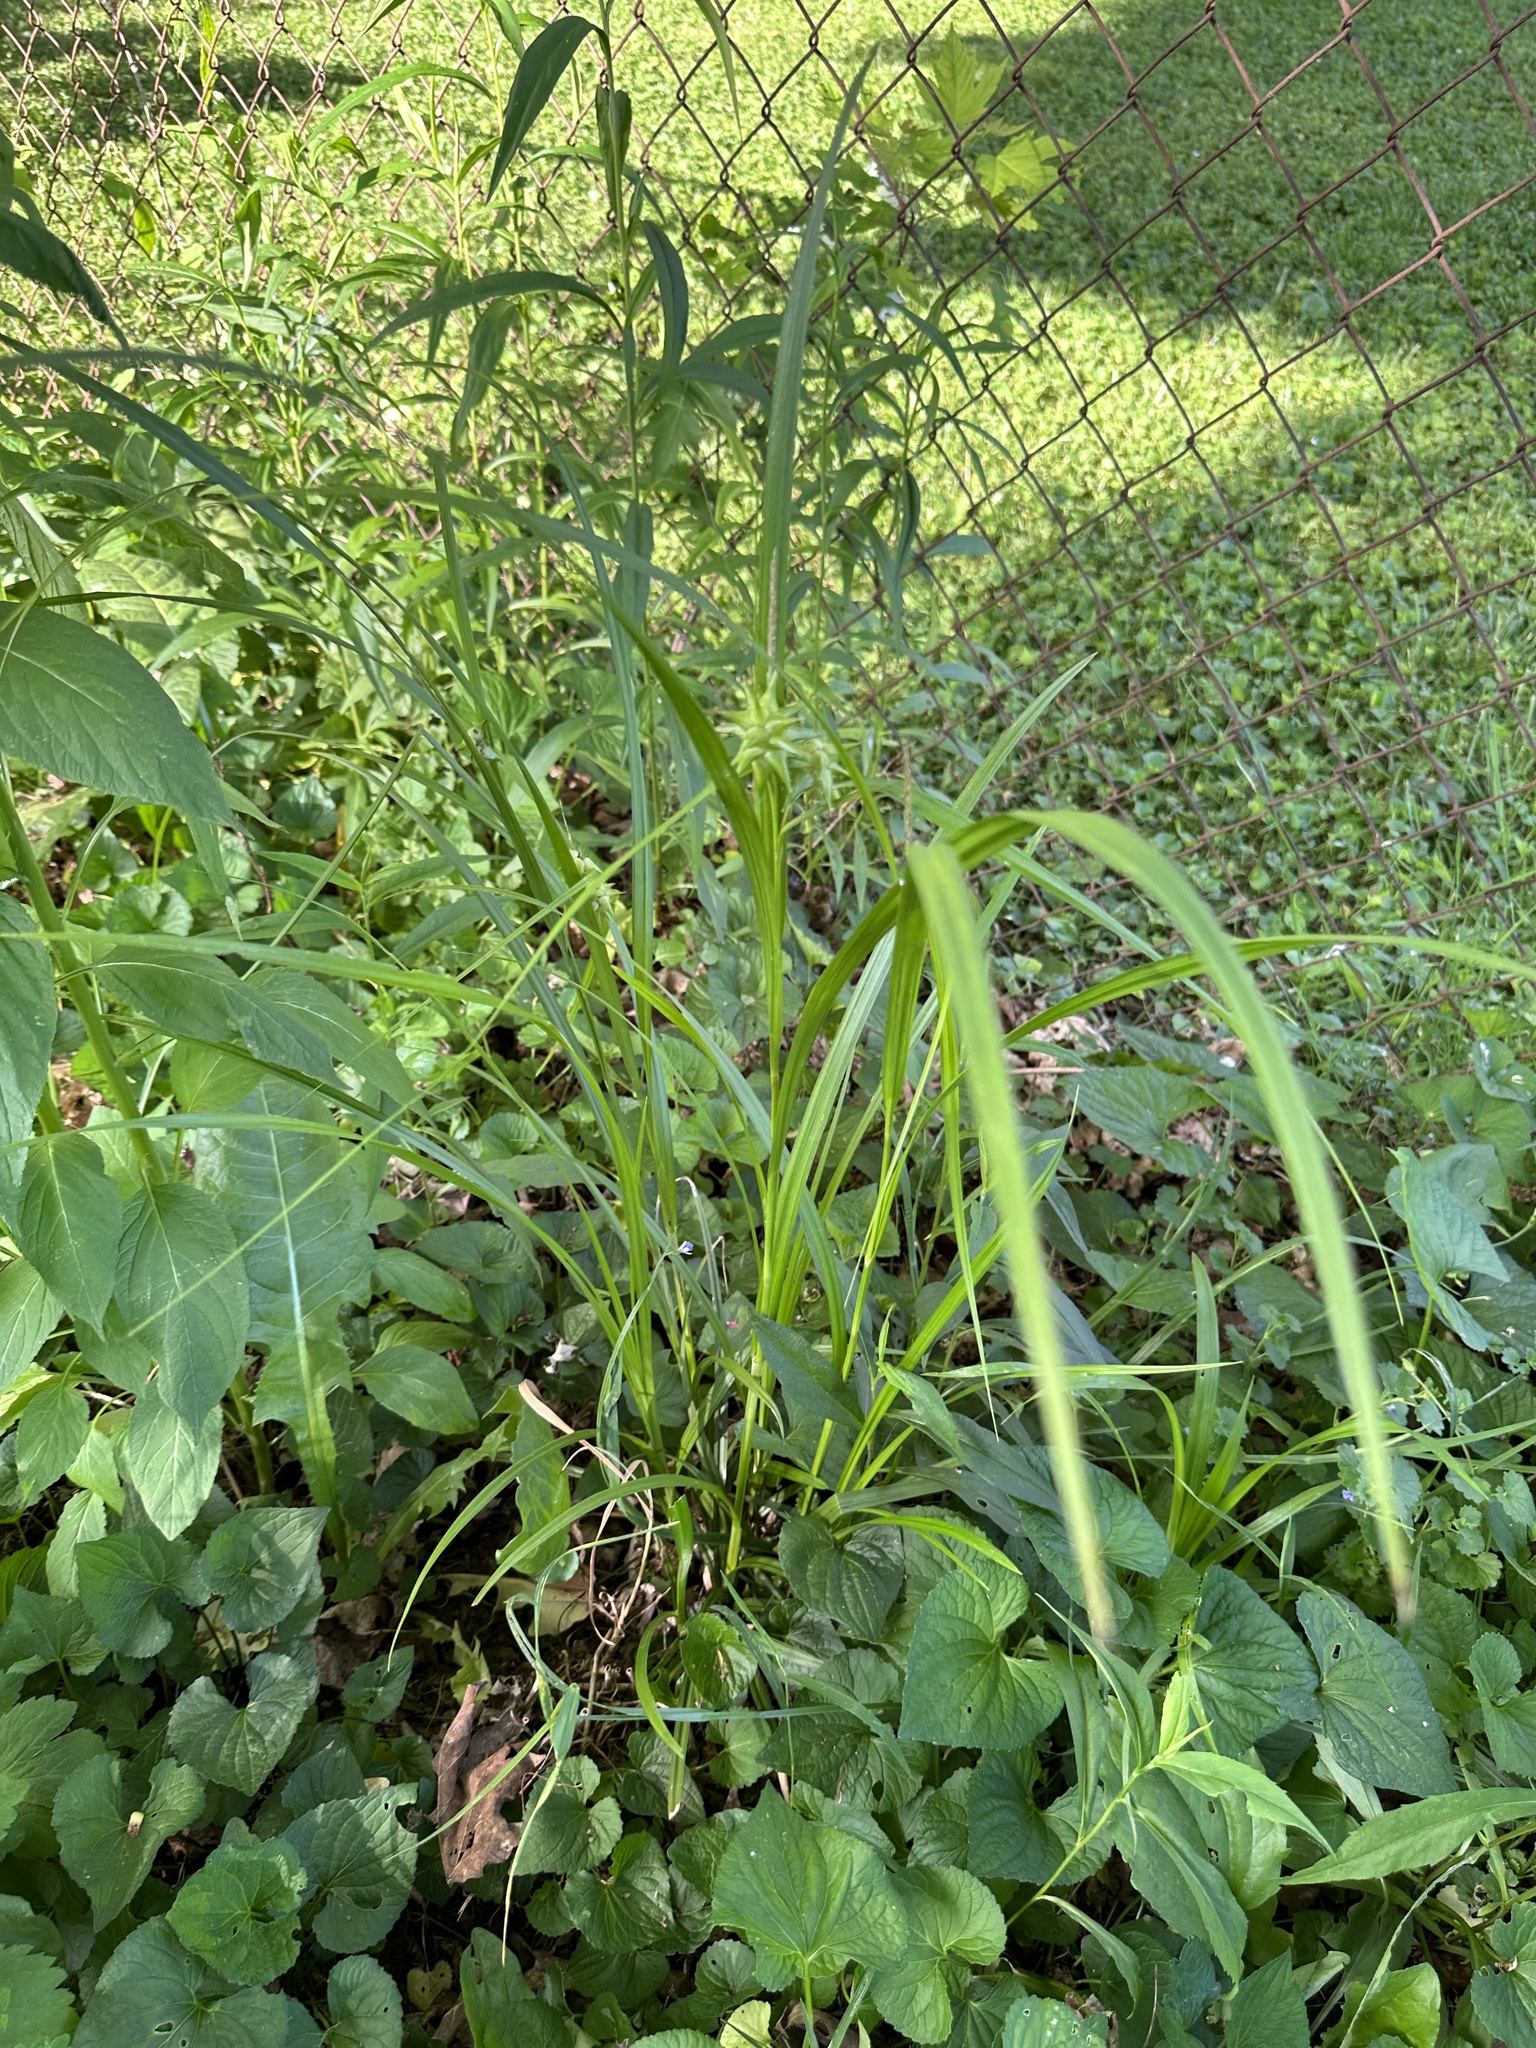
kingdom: Plantae
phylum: Tracheophyta
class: Liliopsida
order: Poales
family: Cyperaceae
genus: Carex
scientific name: Carex grayi
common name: Asa gray's sedge
